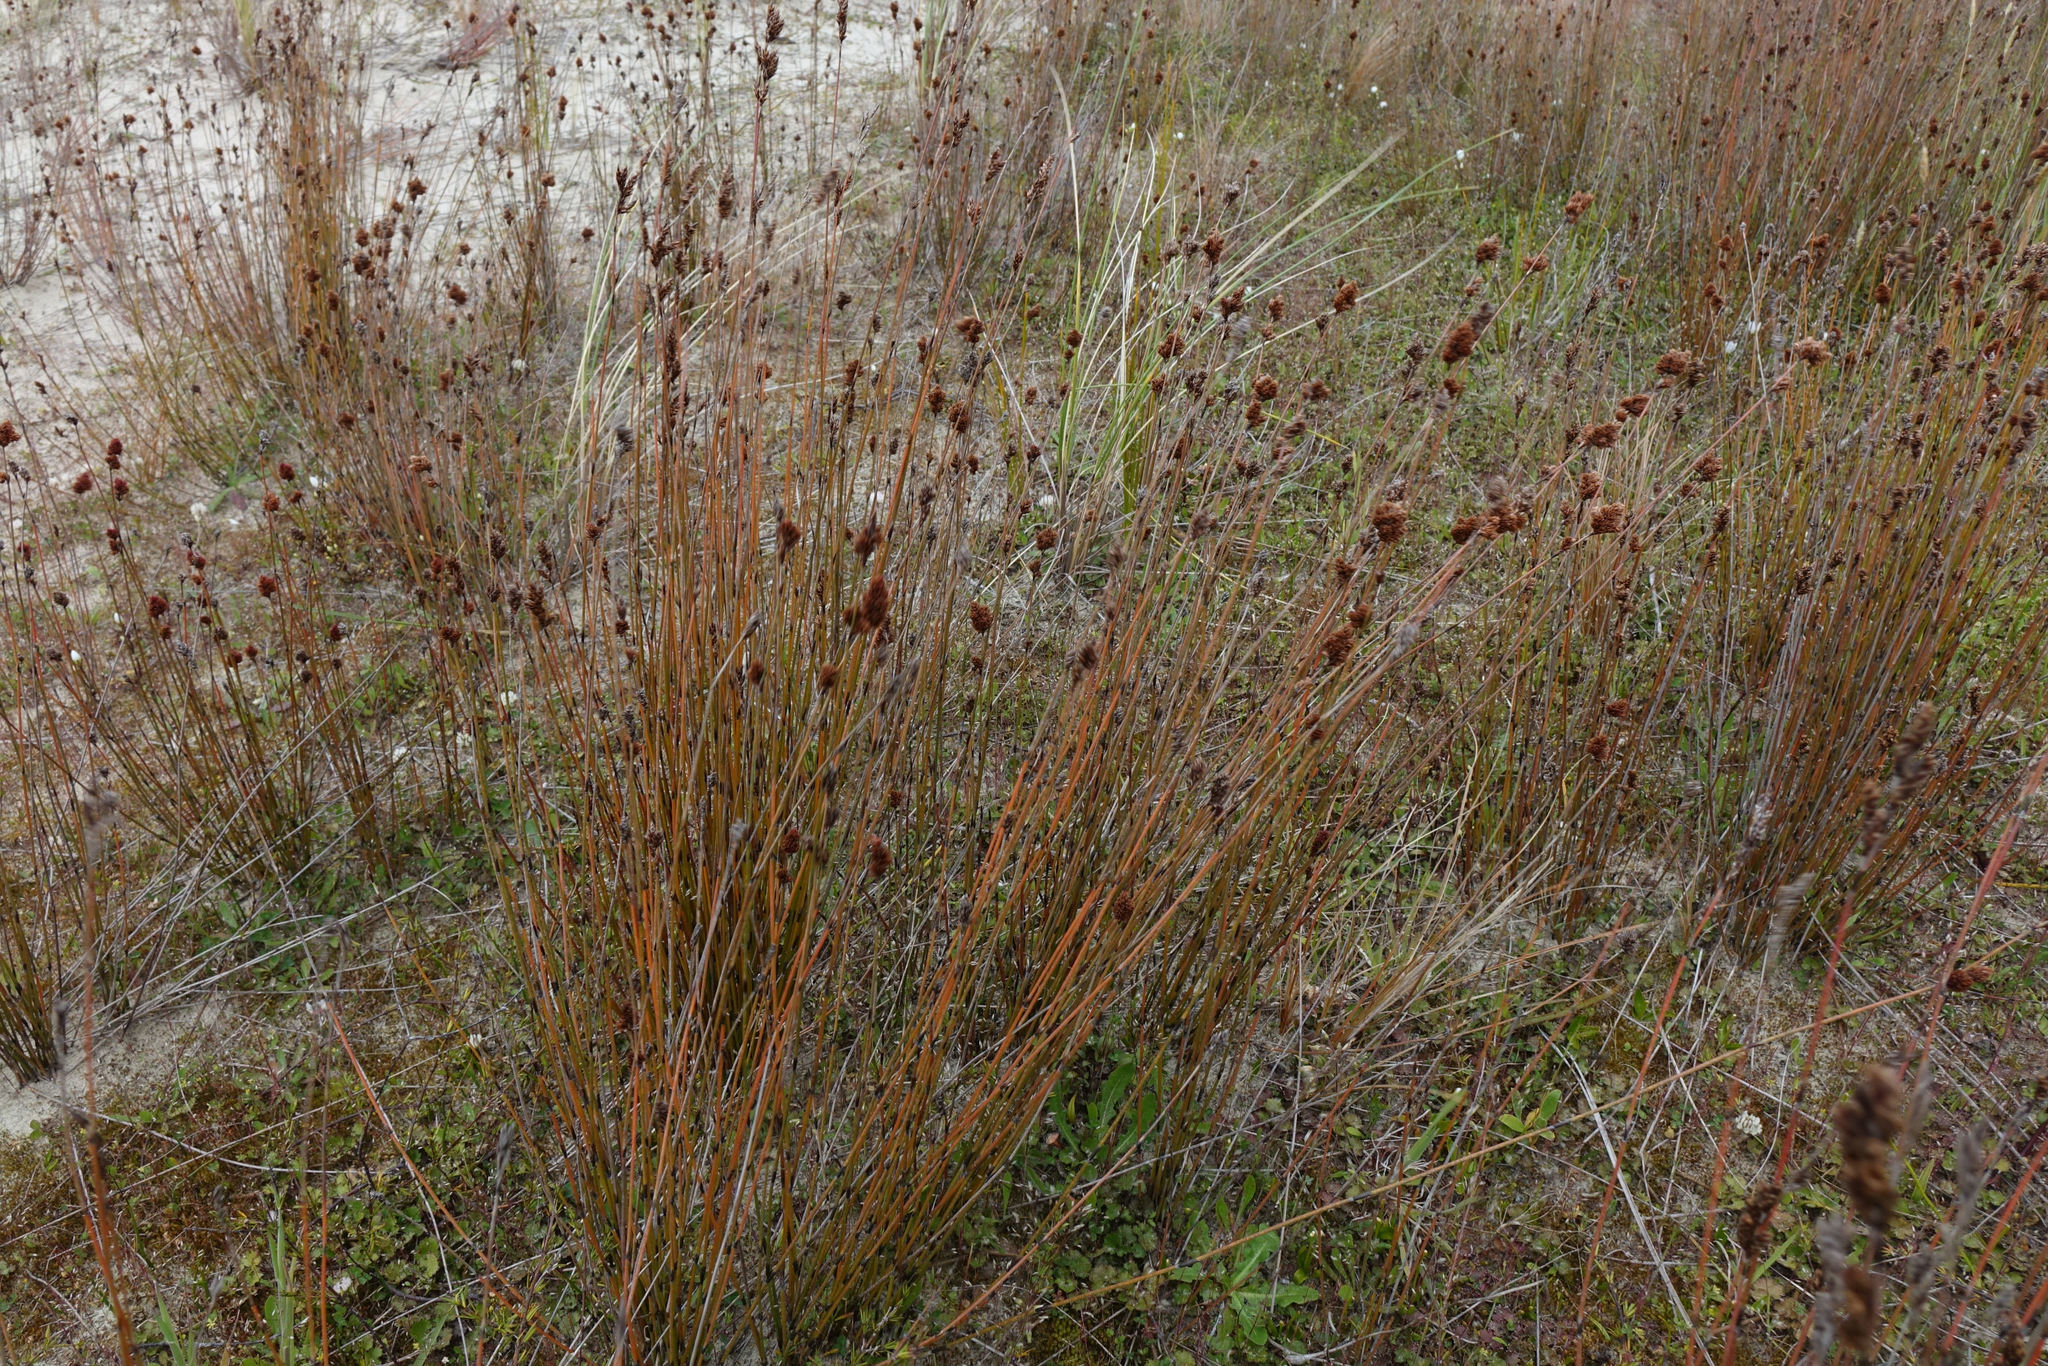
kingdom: Plantae
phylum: Tracheophyta
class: Liliopsida
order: Poales
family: Restionaceae
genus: Apodasmia
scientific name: Apodasmia similis
